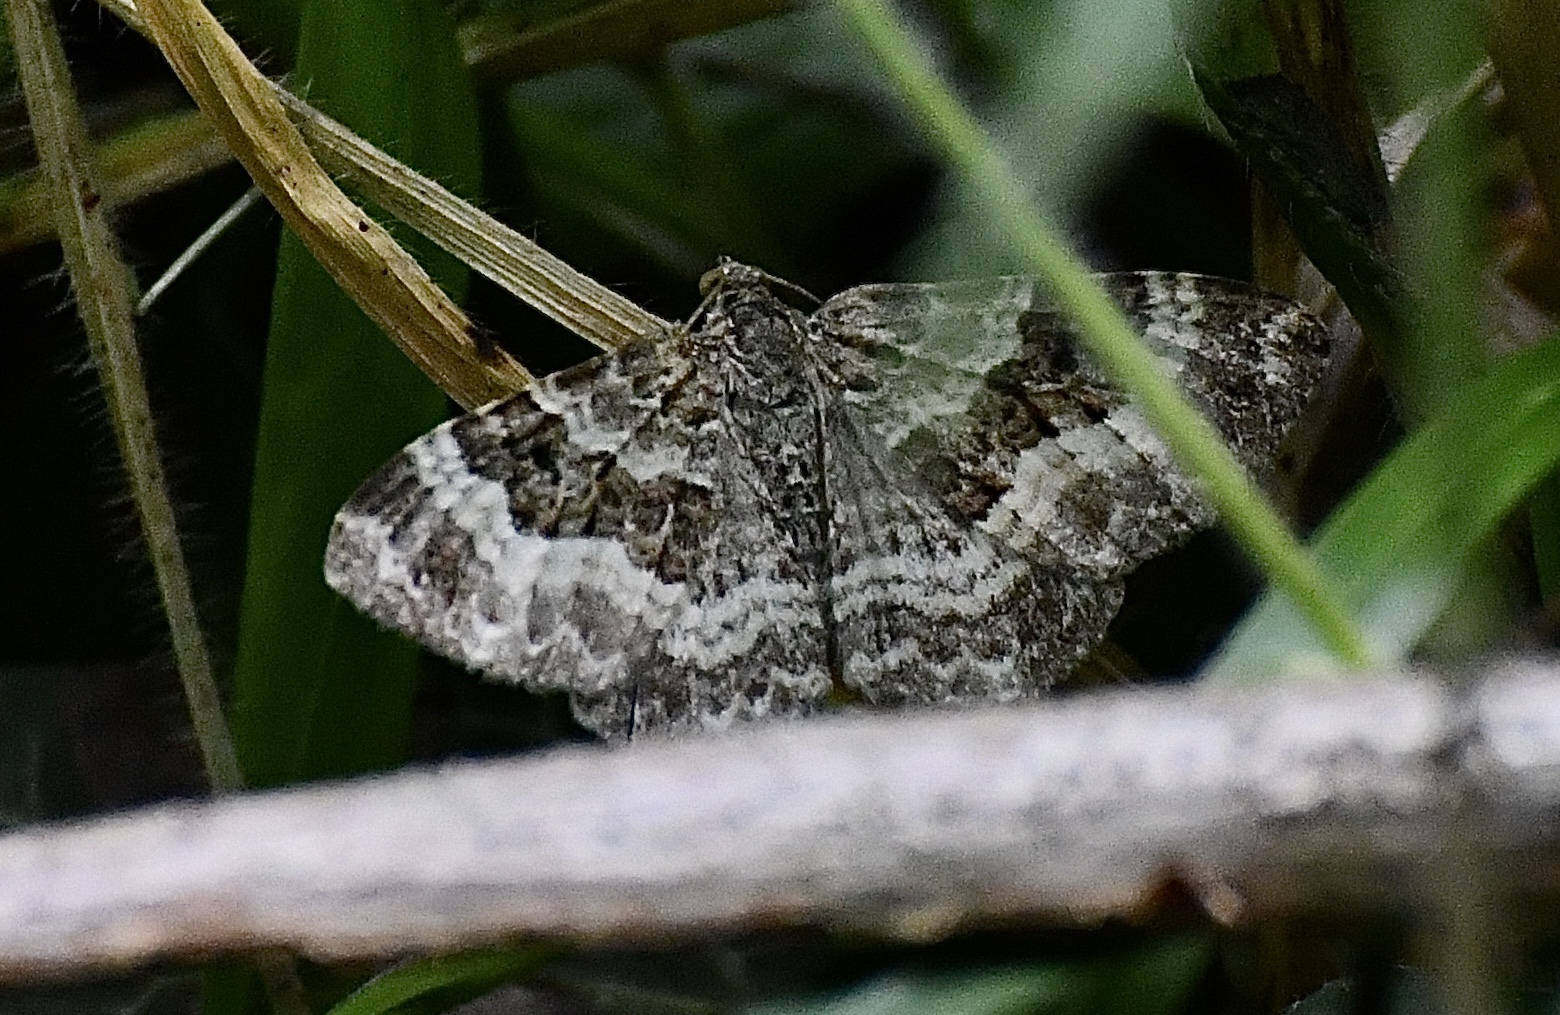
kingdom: Animalia
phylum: Arthropoda
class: Insecta
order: Lepidoptera
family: Geometridae
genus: Epirrhoe
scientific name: Epirrhoe alternata
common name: Common carpet
